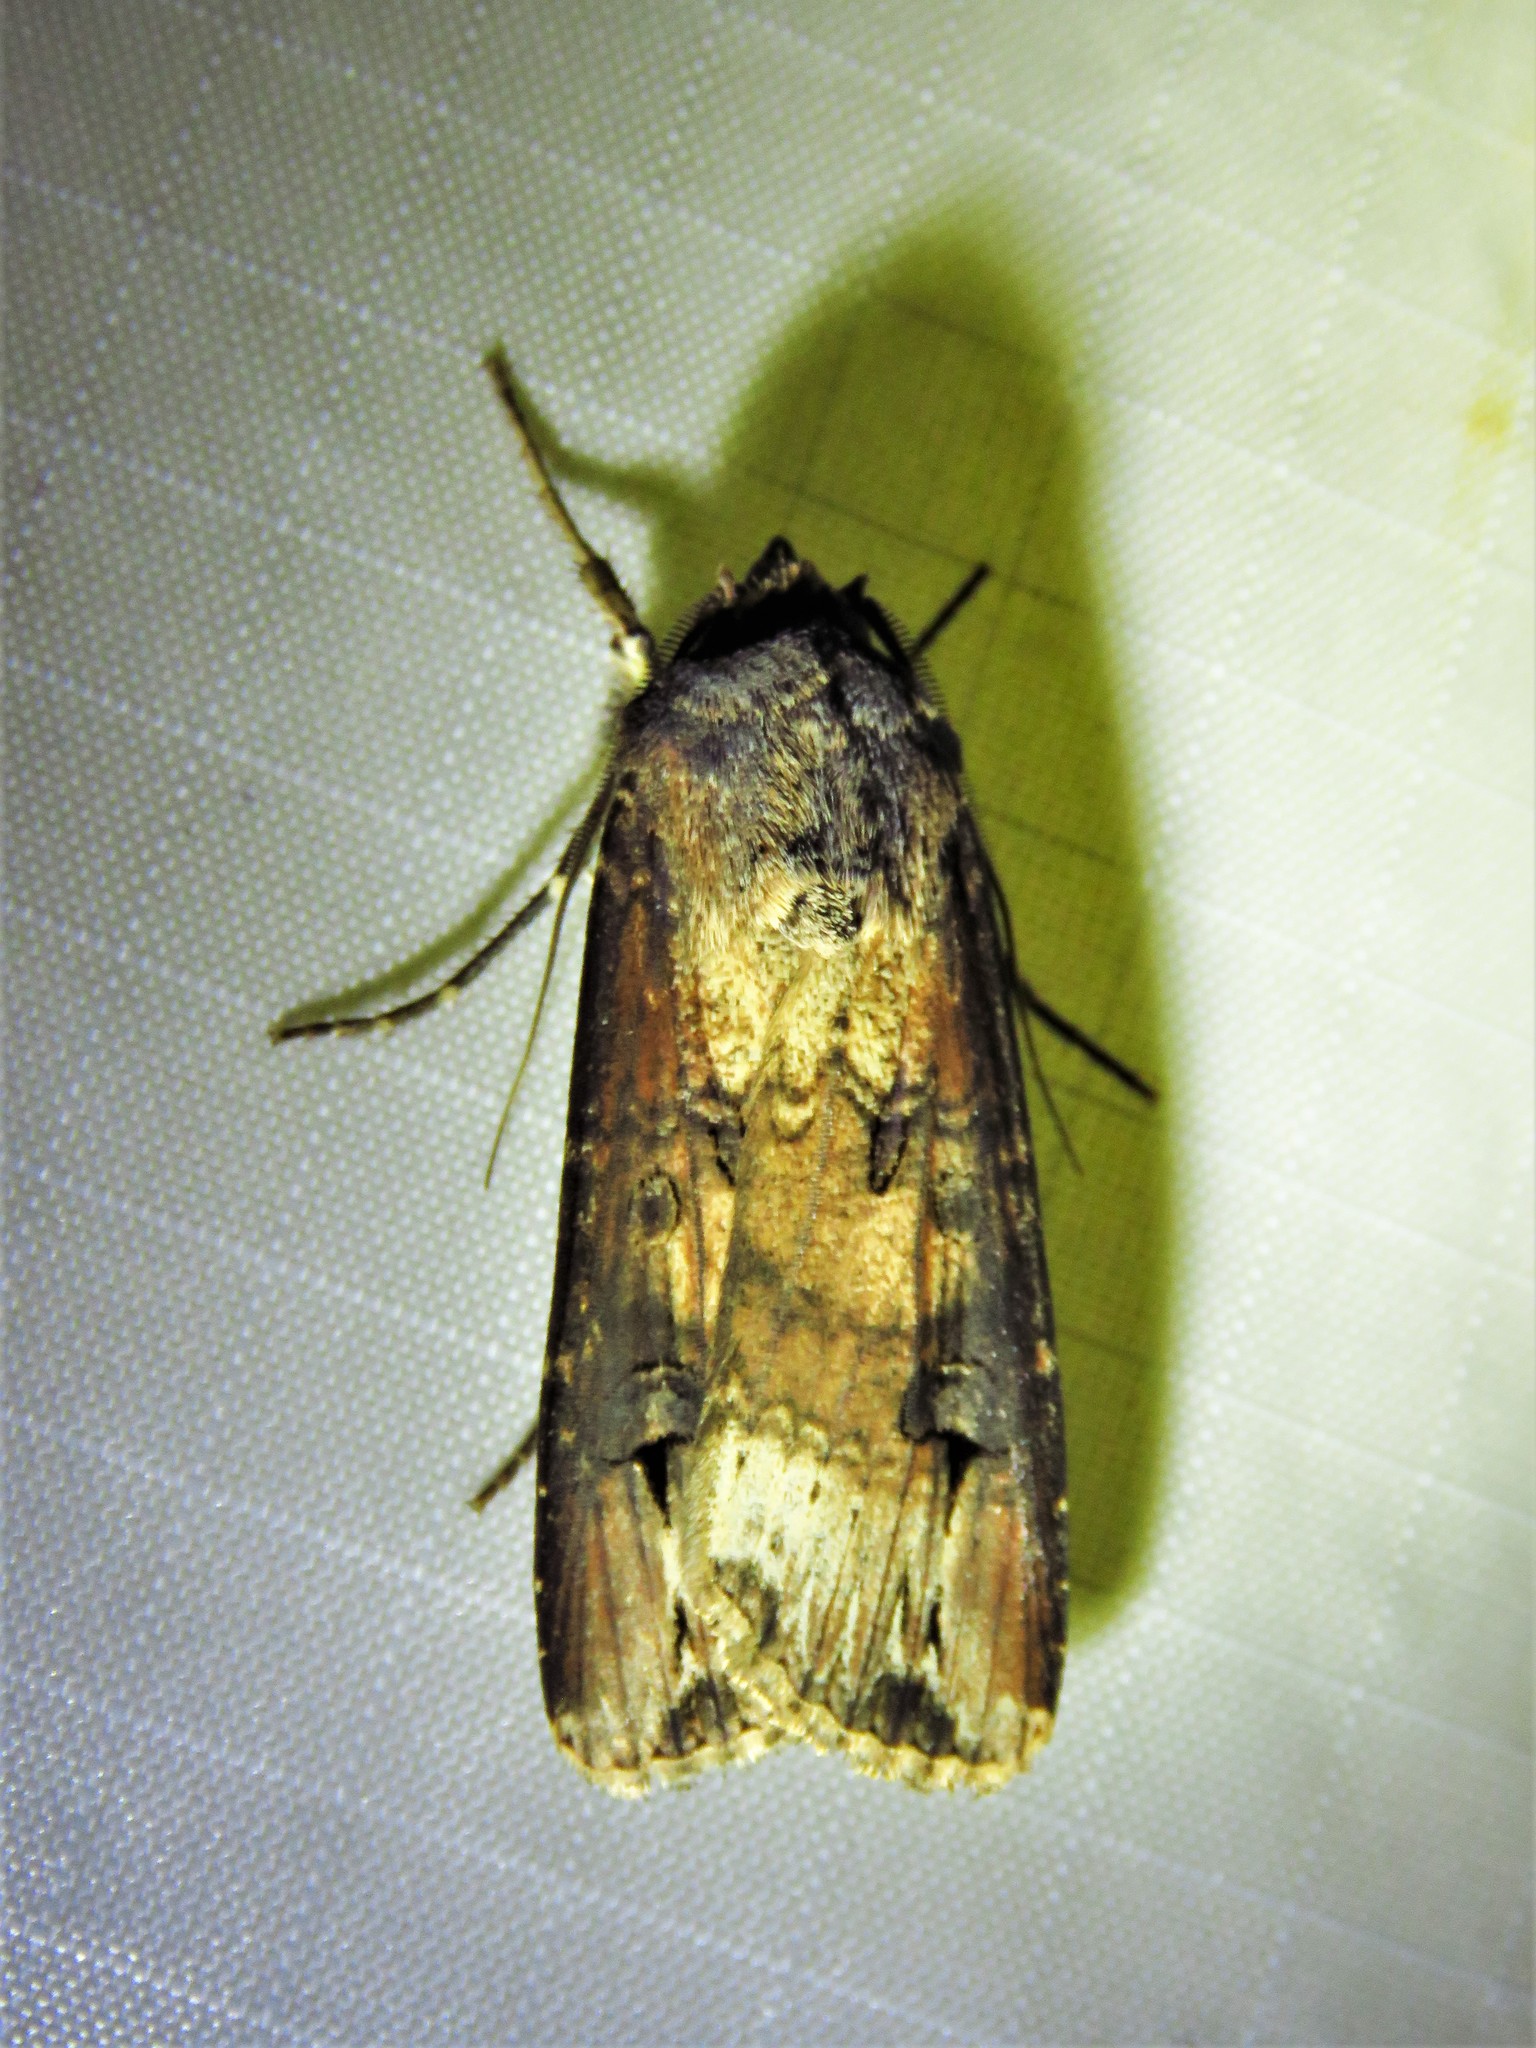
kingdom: Animalia
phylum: Arthropoda
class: Insecta
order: Lepidoptera
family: Noctuidae
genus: Agrotis
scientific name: Agrotis ipsilon
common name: Dark sword-grass
